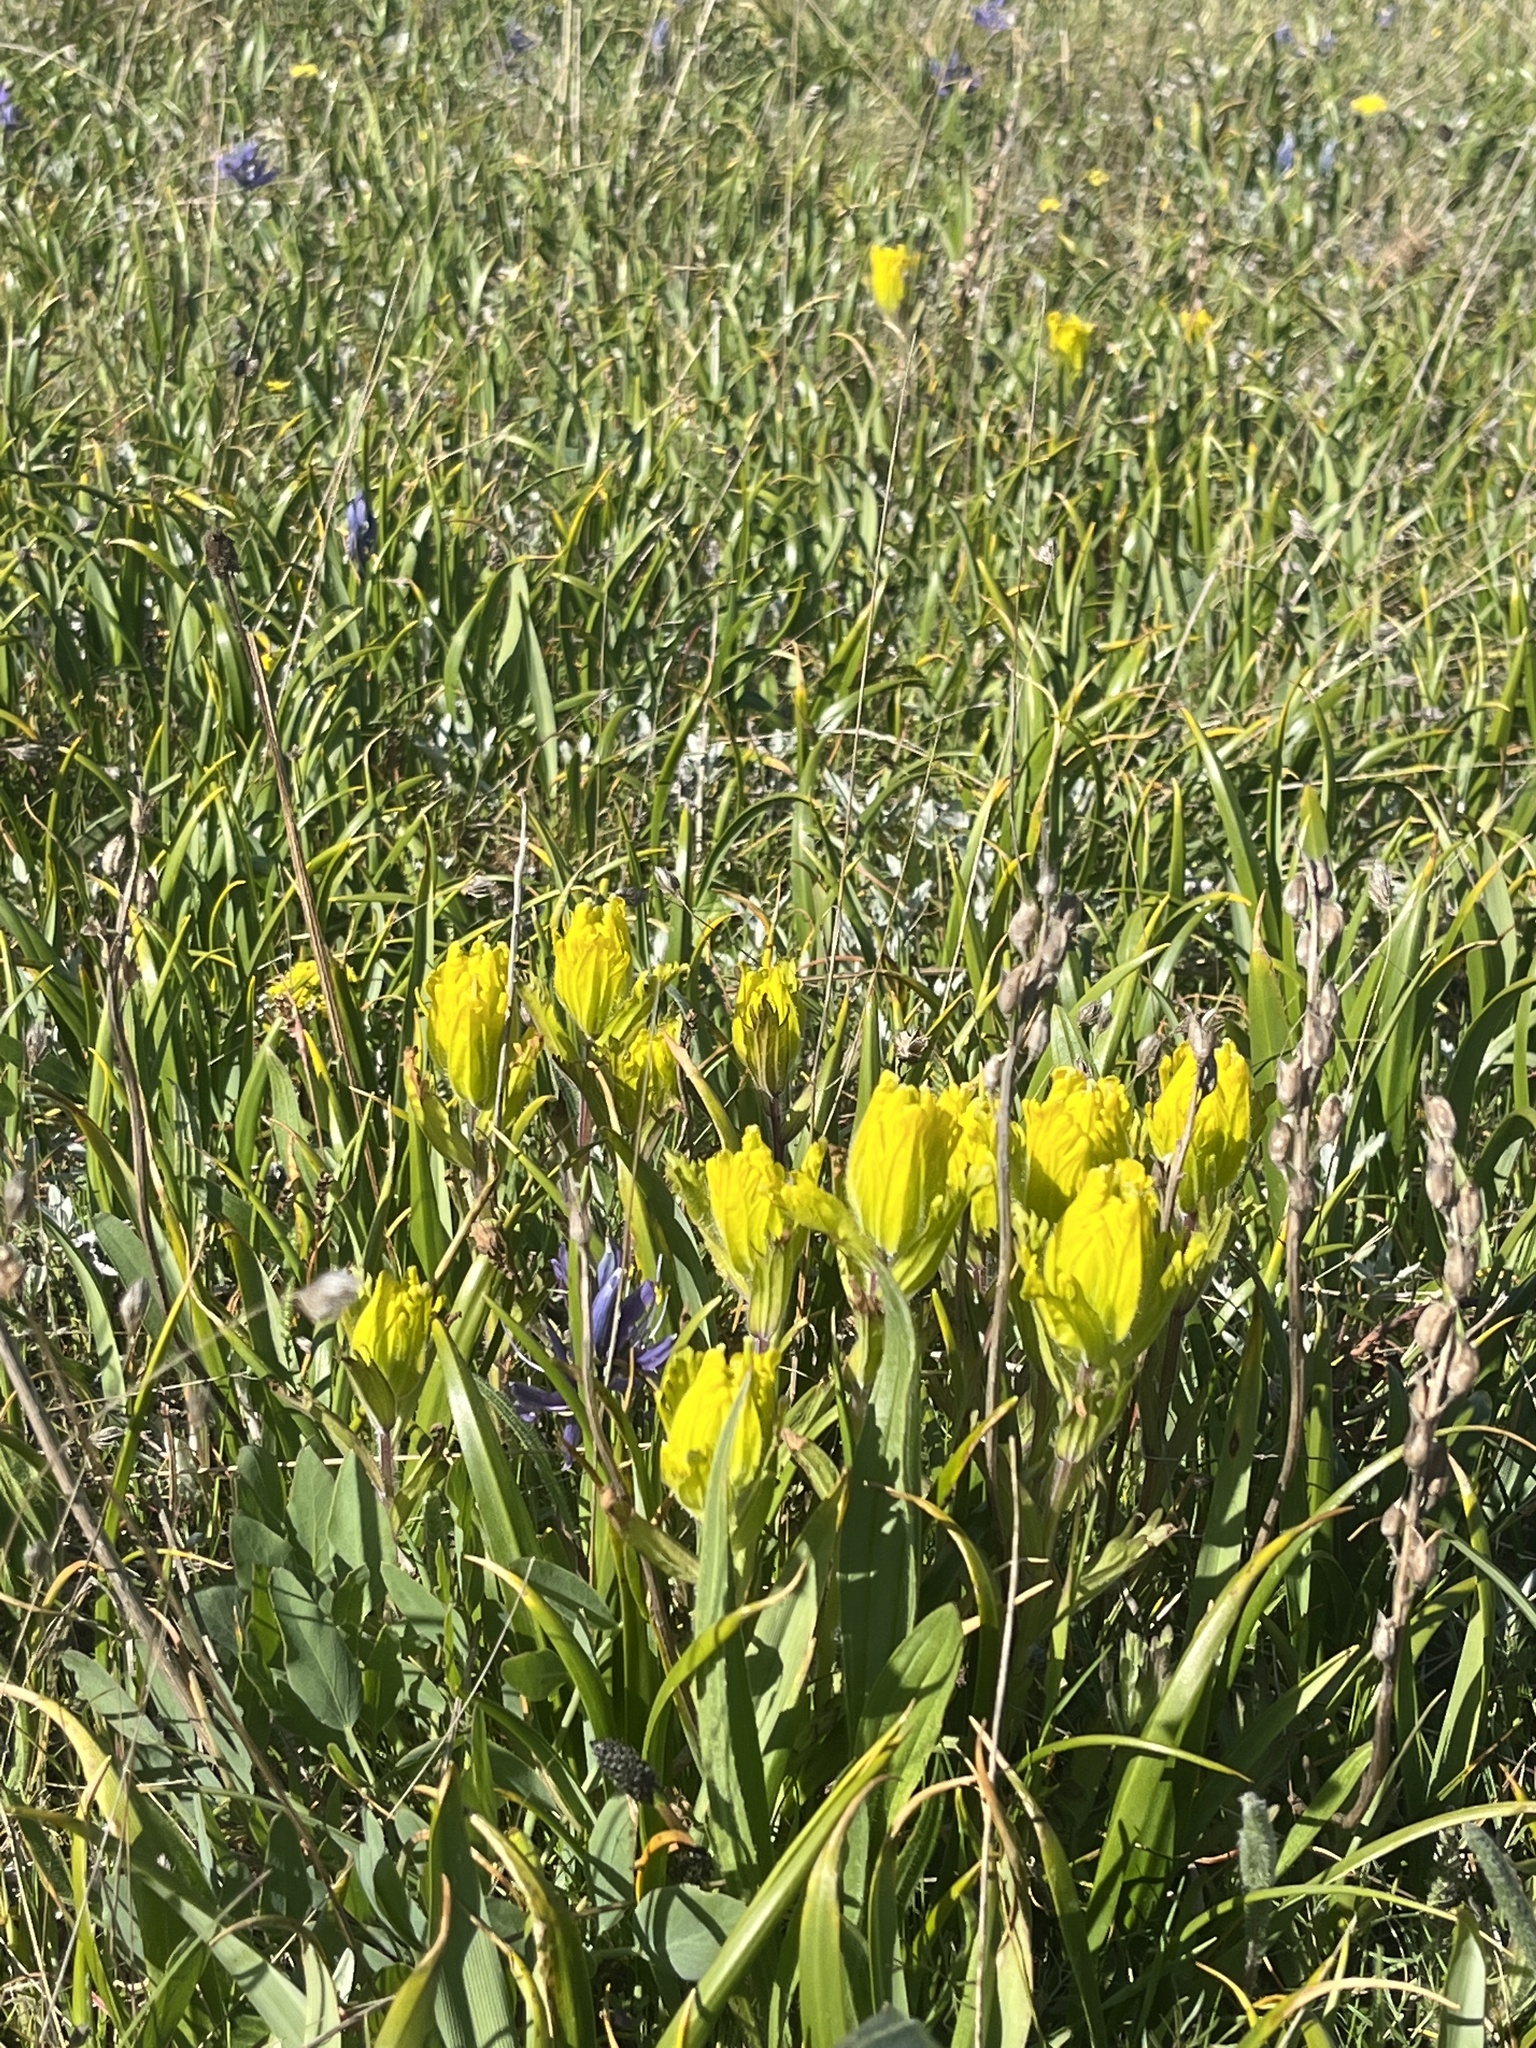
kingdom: Plantae
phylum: Tracheophyta
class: Magnoliopsida
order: Lamiales
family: Orobanchaceae
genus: Castilleja
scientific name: Castilleja levisecta
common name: Golden paintbrush
